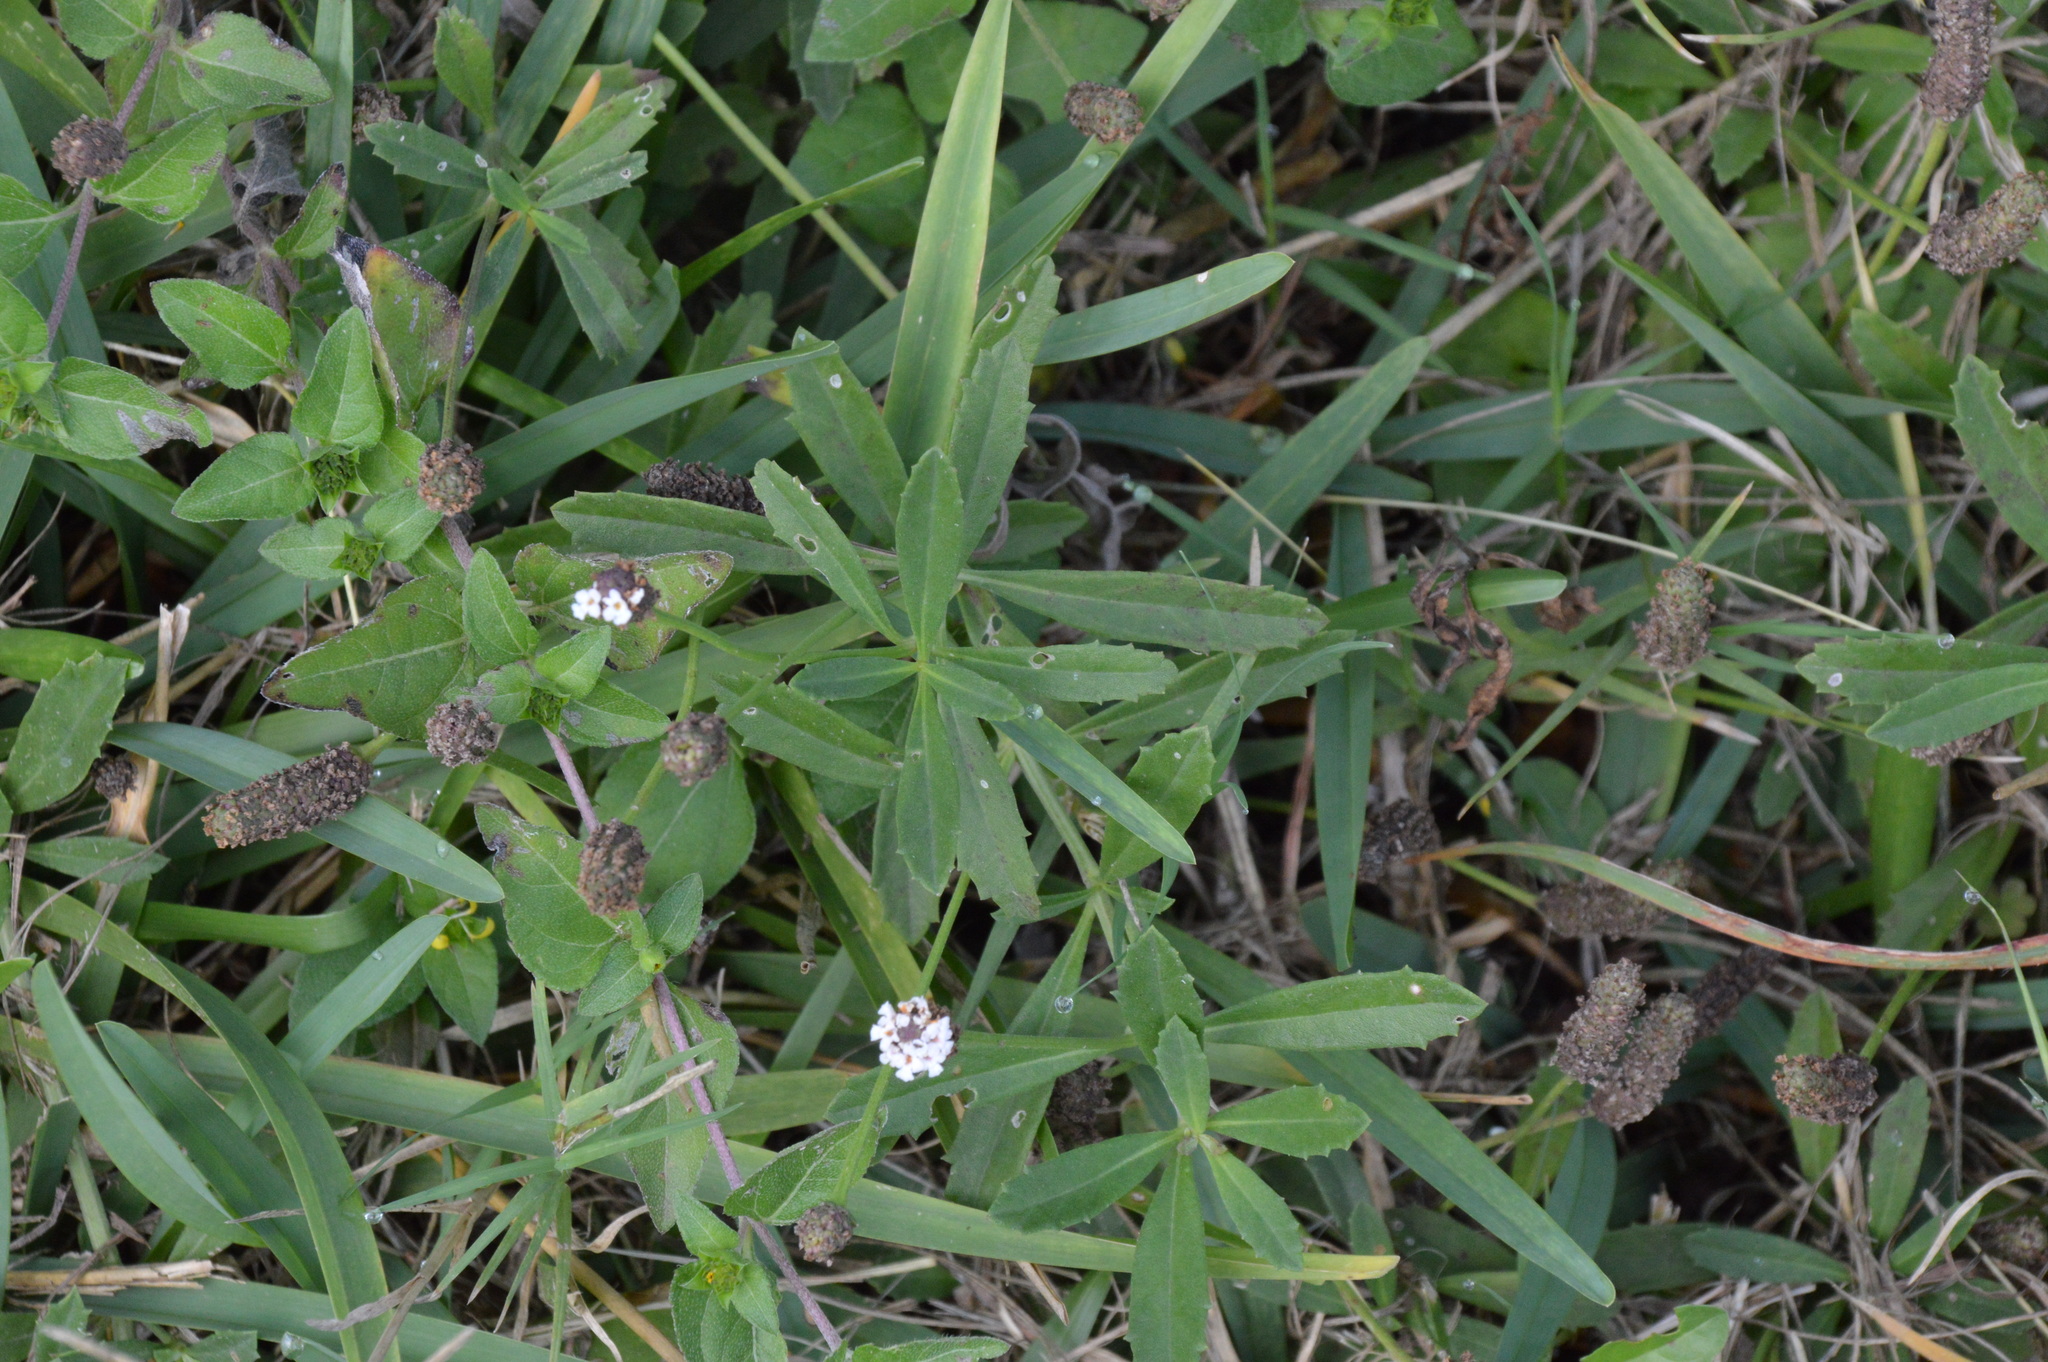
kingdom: Plantae
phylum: Tracheophyta
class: Magnoliopsida
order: Lamiales
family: Verbenaceae
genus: Phyla
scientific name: Phyla nodiflora
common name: Frogfruit
